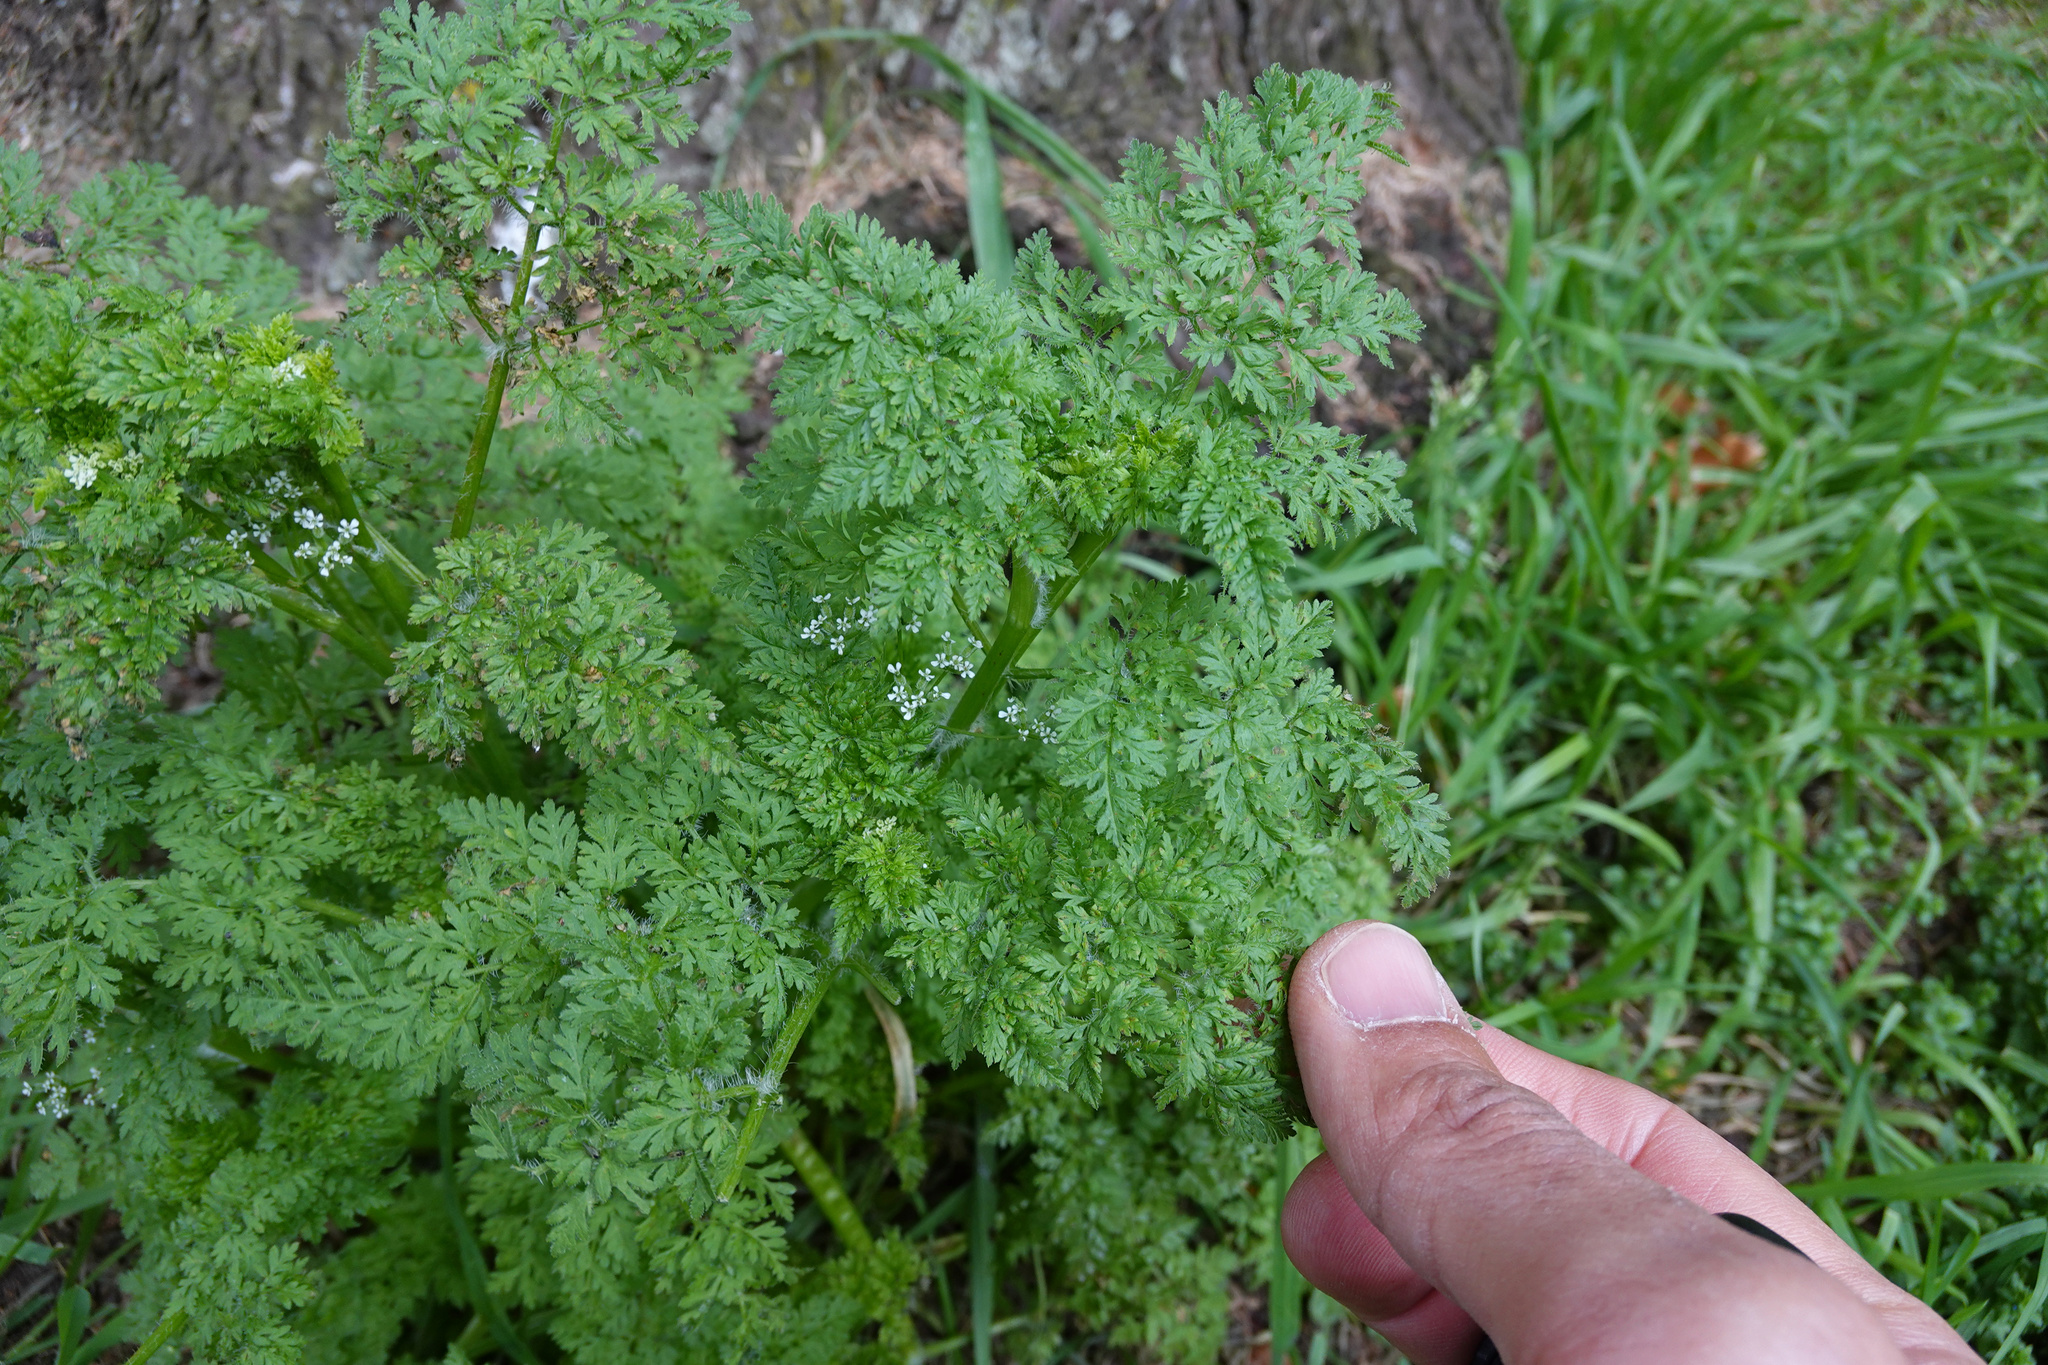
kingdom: Plantae
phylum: Tracheophyta
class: Magnoliopsida
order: Apiales
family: Apiaceae
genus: Anthriscus
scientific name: Anthriscus caucalis
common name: Bur chervil
